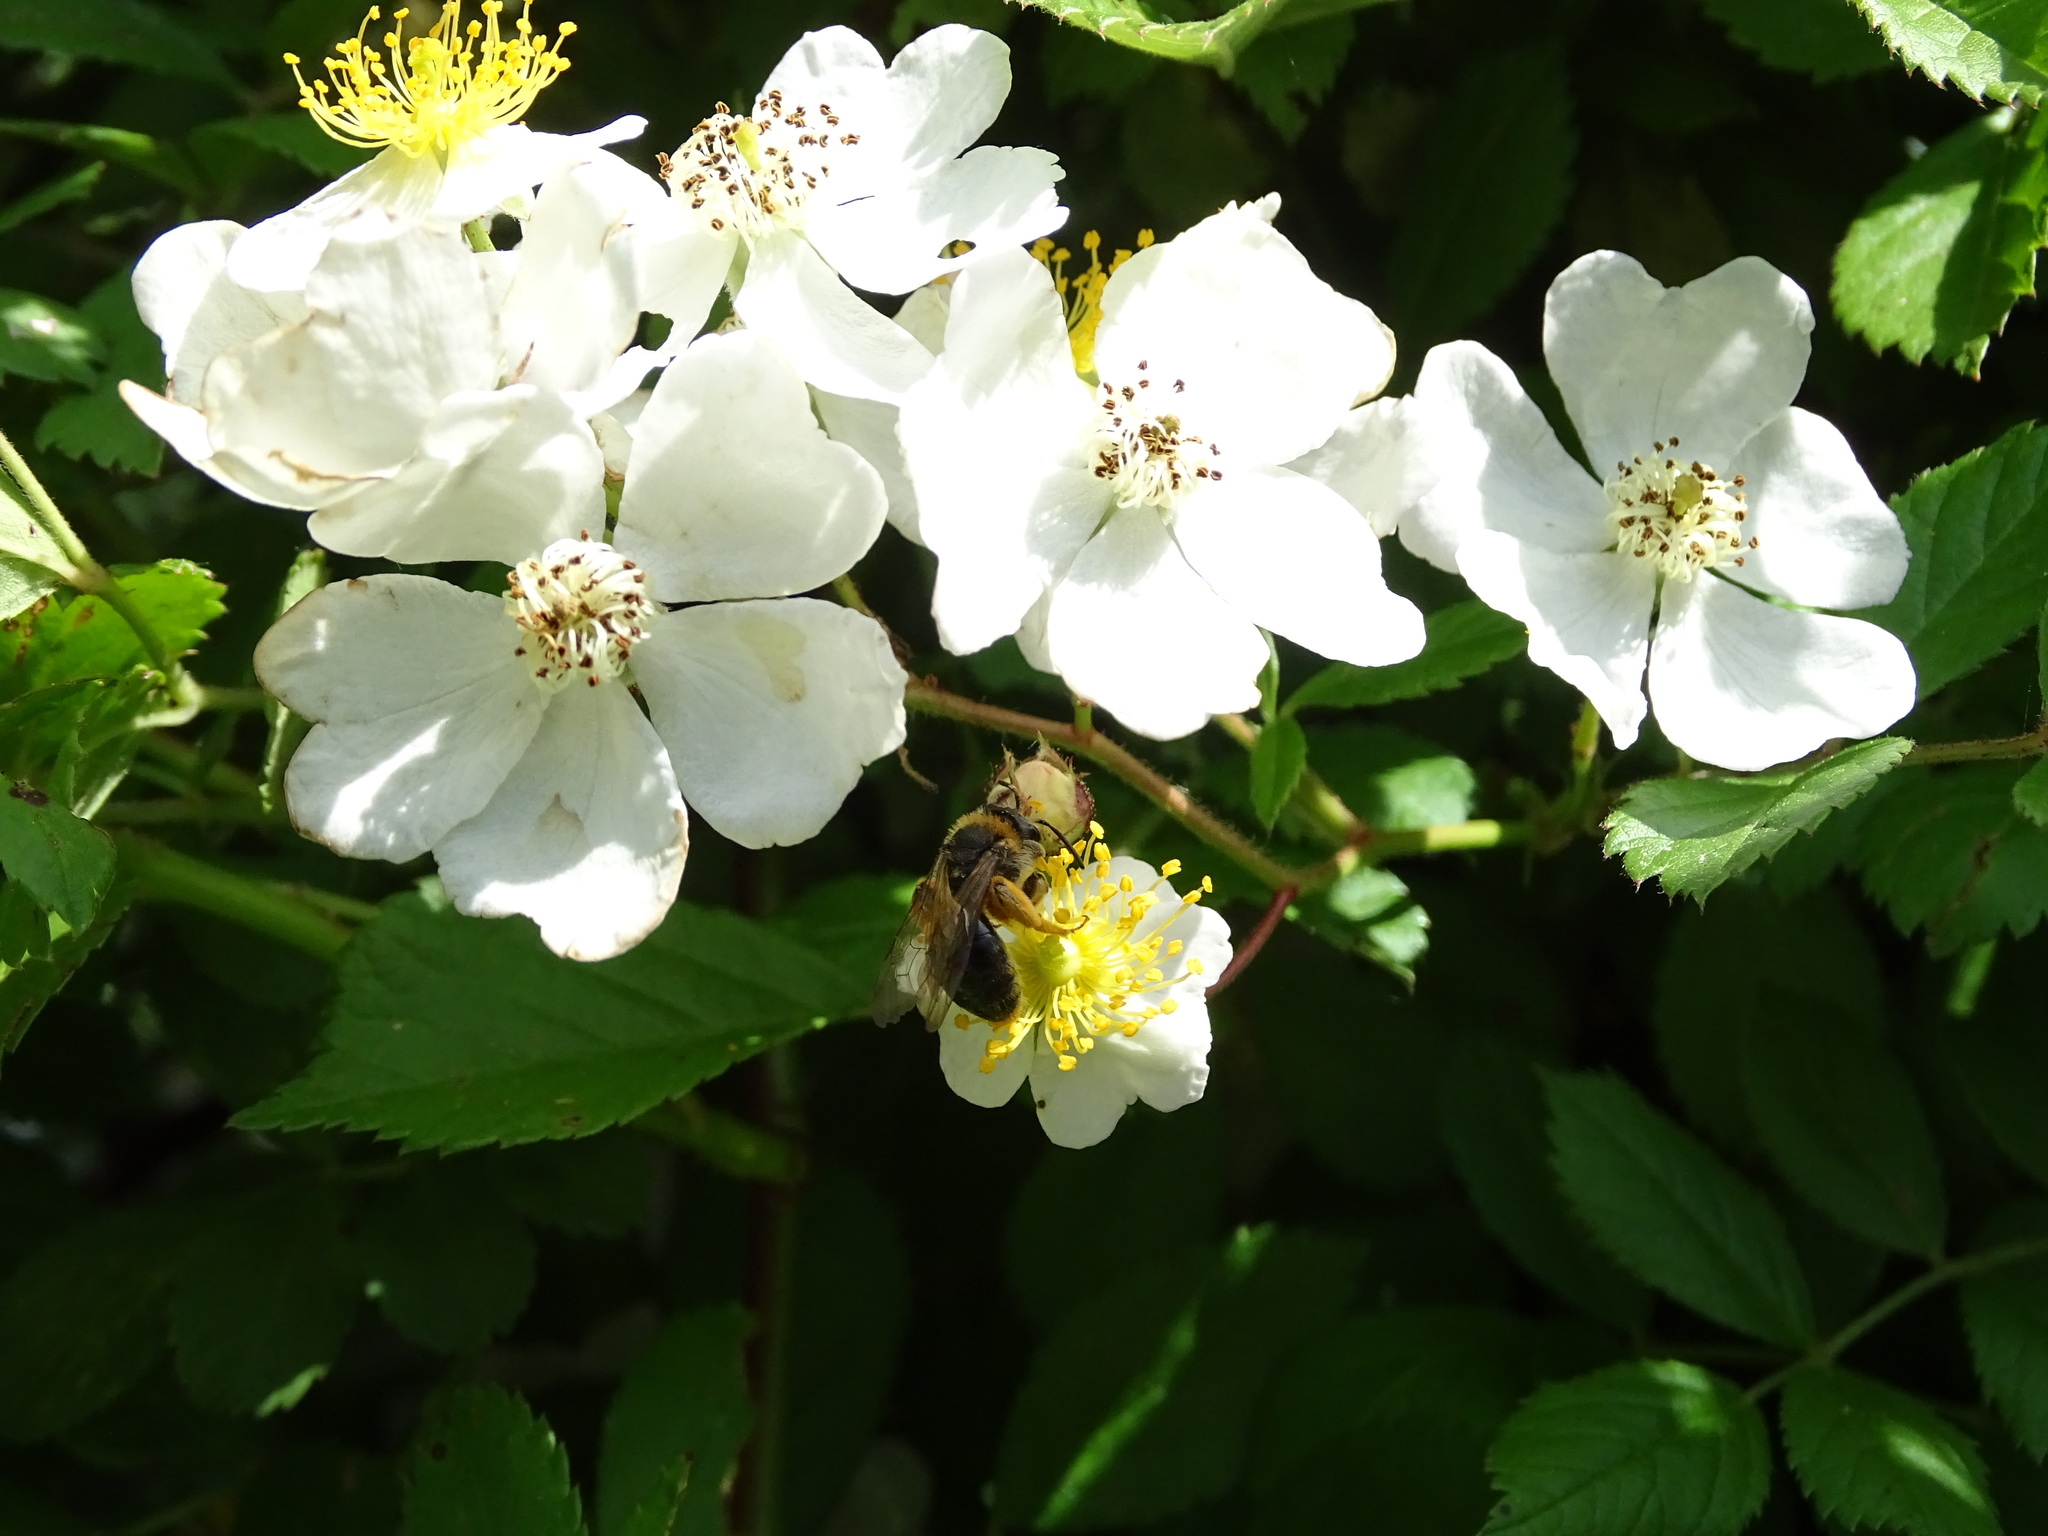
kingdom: Animalia
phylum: Arthropoda
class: Insecta
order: Hymenoptera
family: Andrenidae
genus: Andrena
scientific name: Andrena haemorrhoa
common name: Early mining bee
